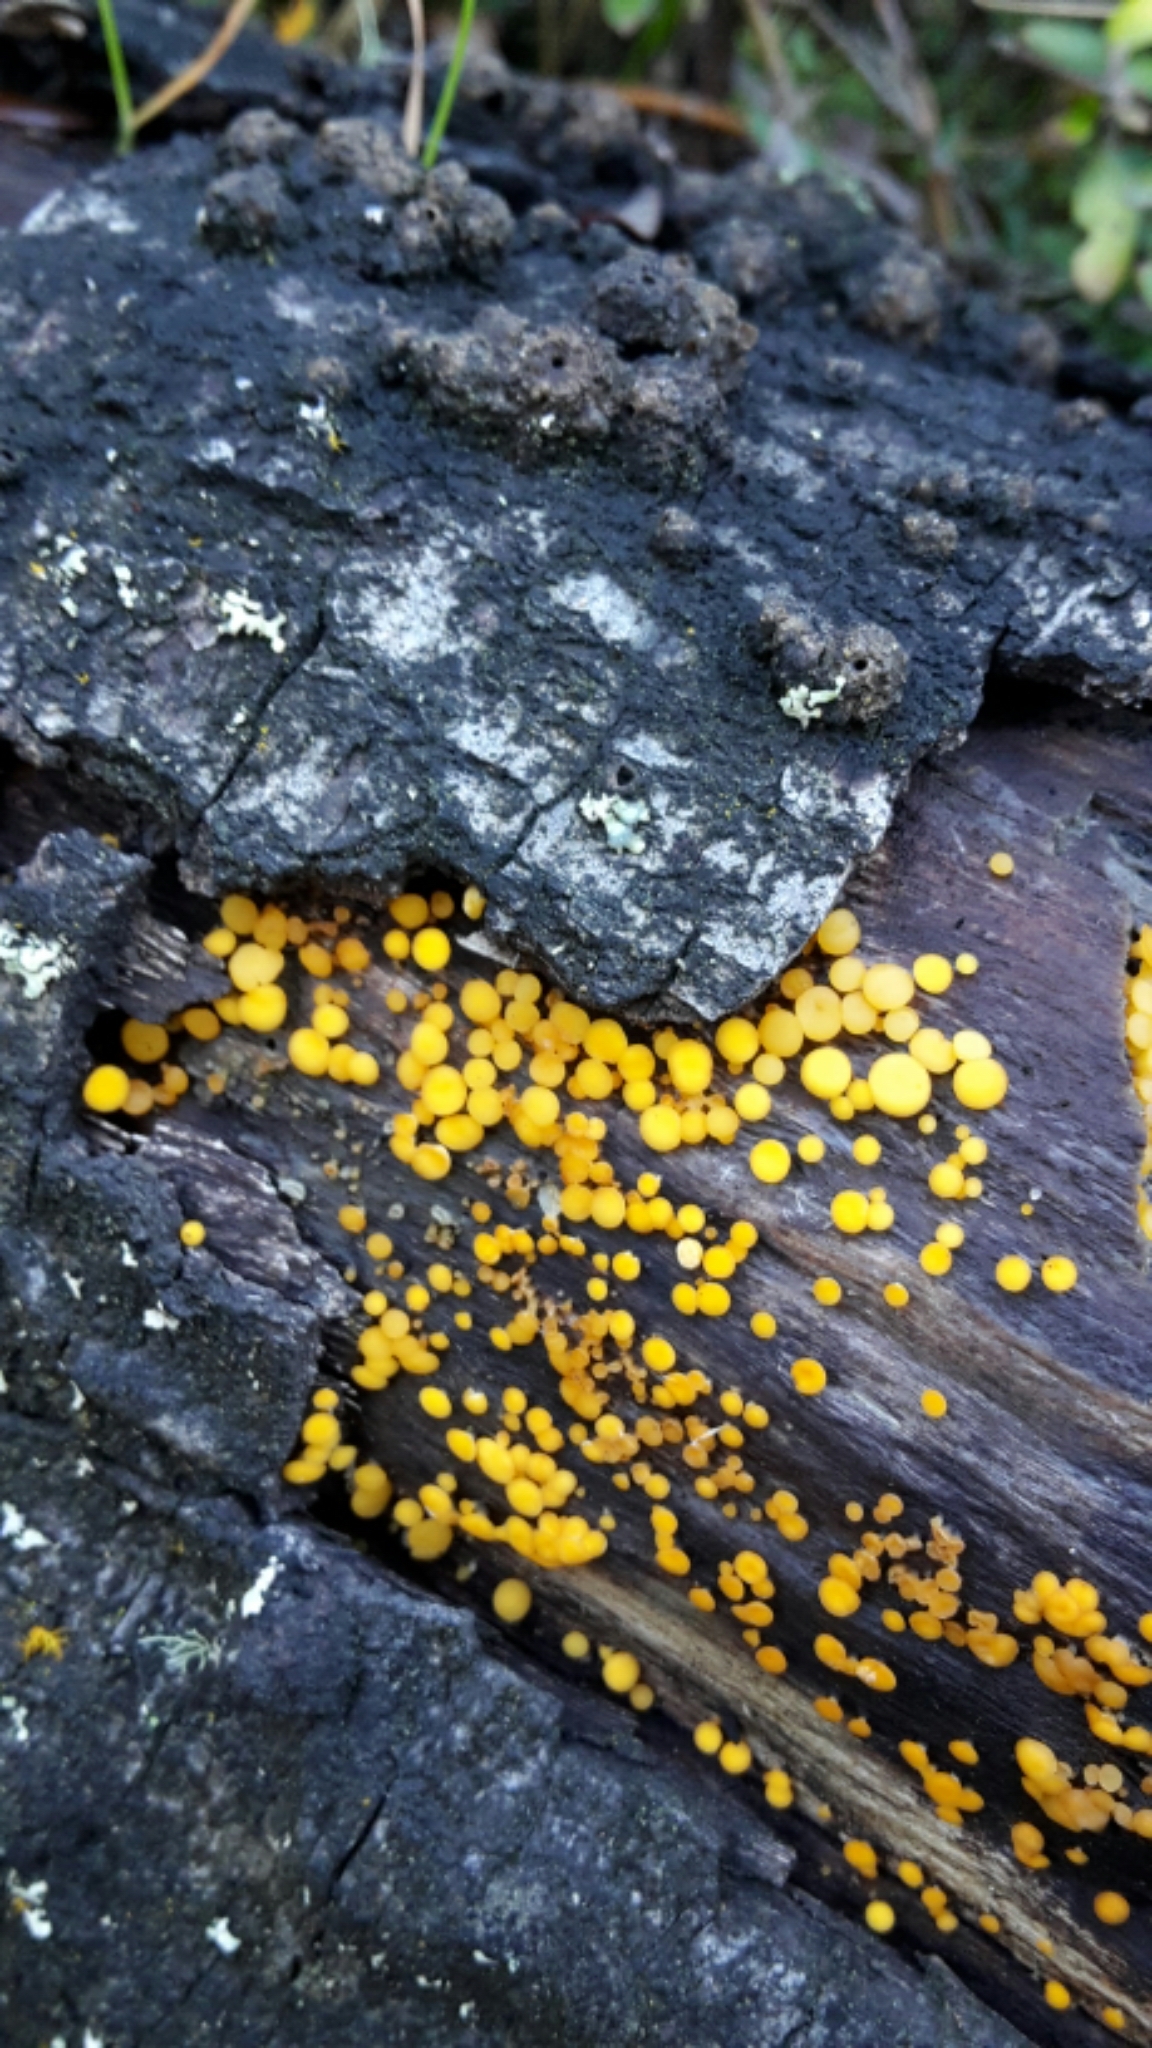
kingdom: Fungi
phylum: Ascomycota
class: Leotiomycetes
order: Helotiales
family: Pezizellaceae
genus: Calycina
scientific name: Calycina citrina
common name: Yellow fairy cups
